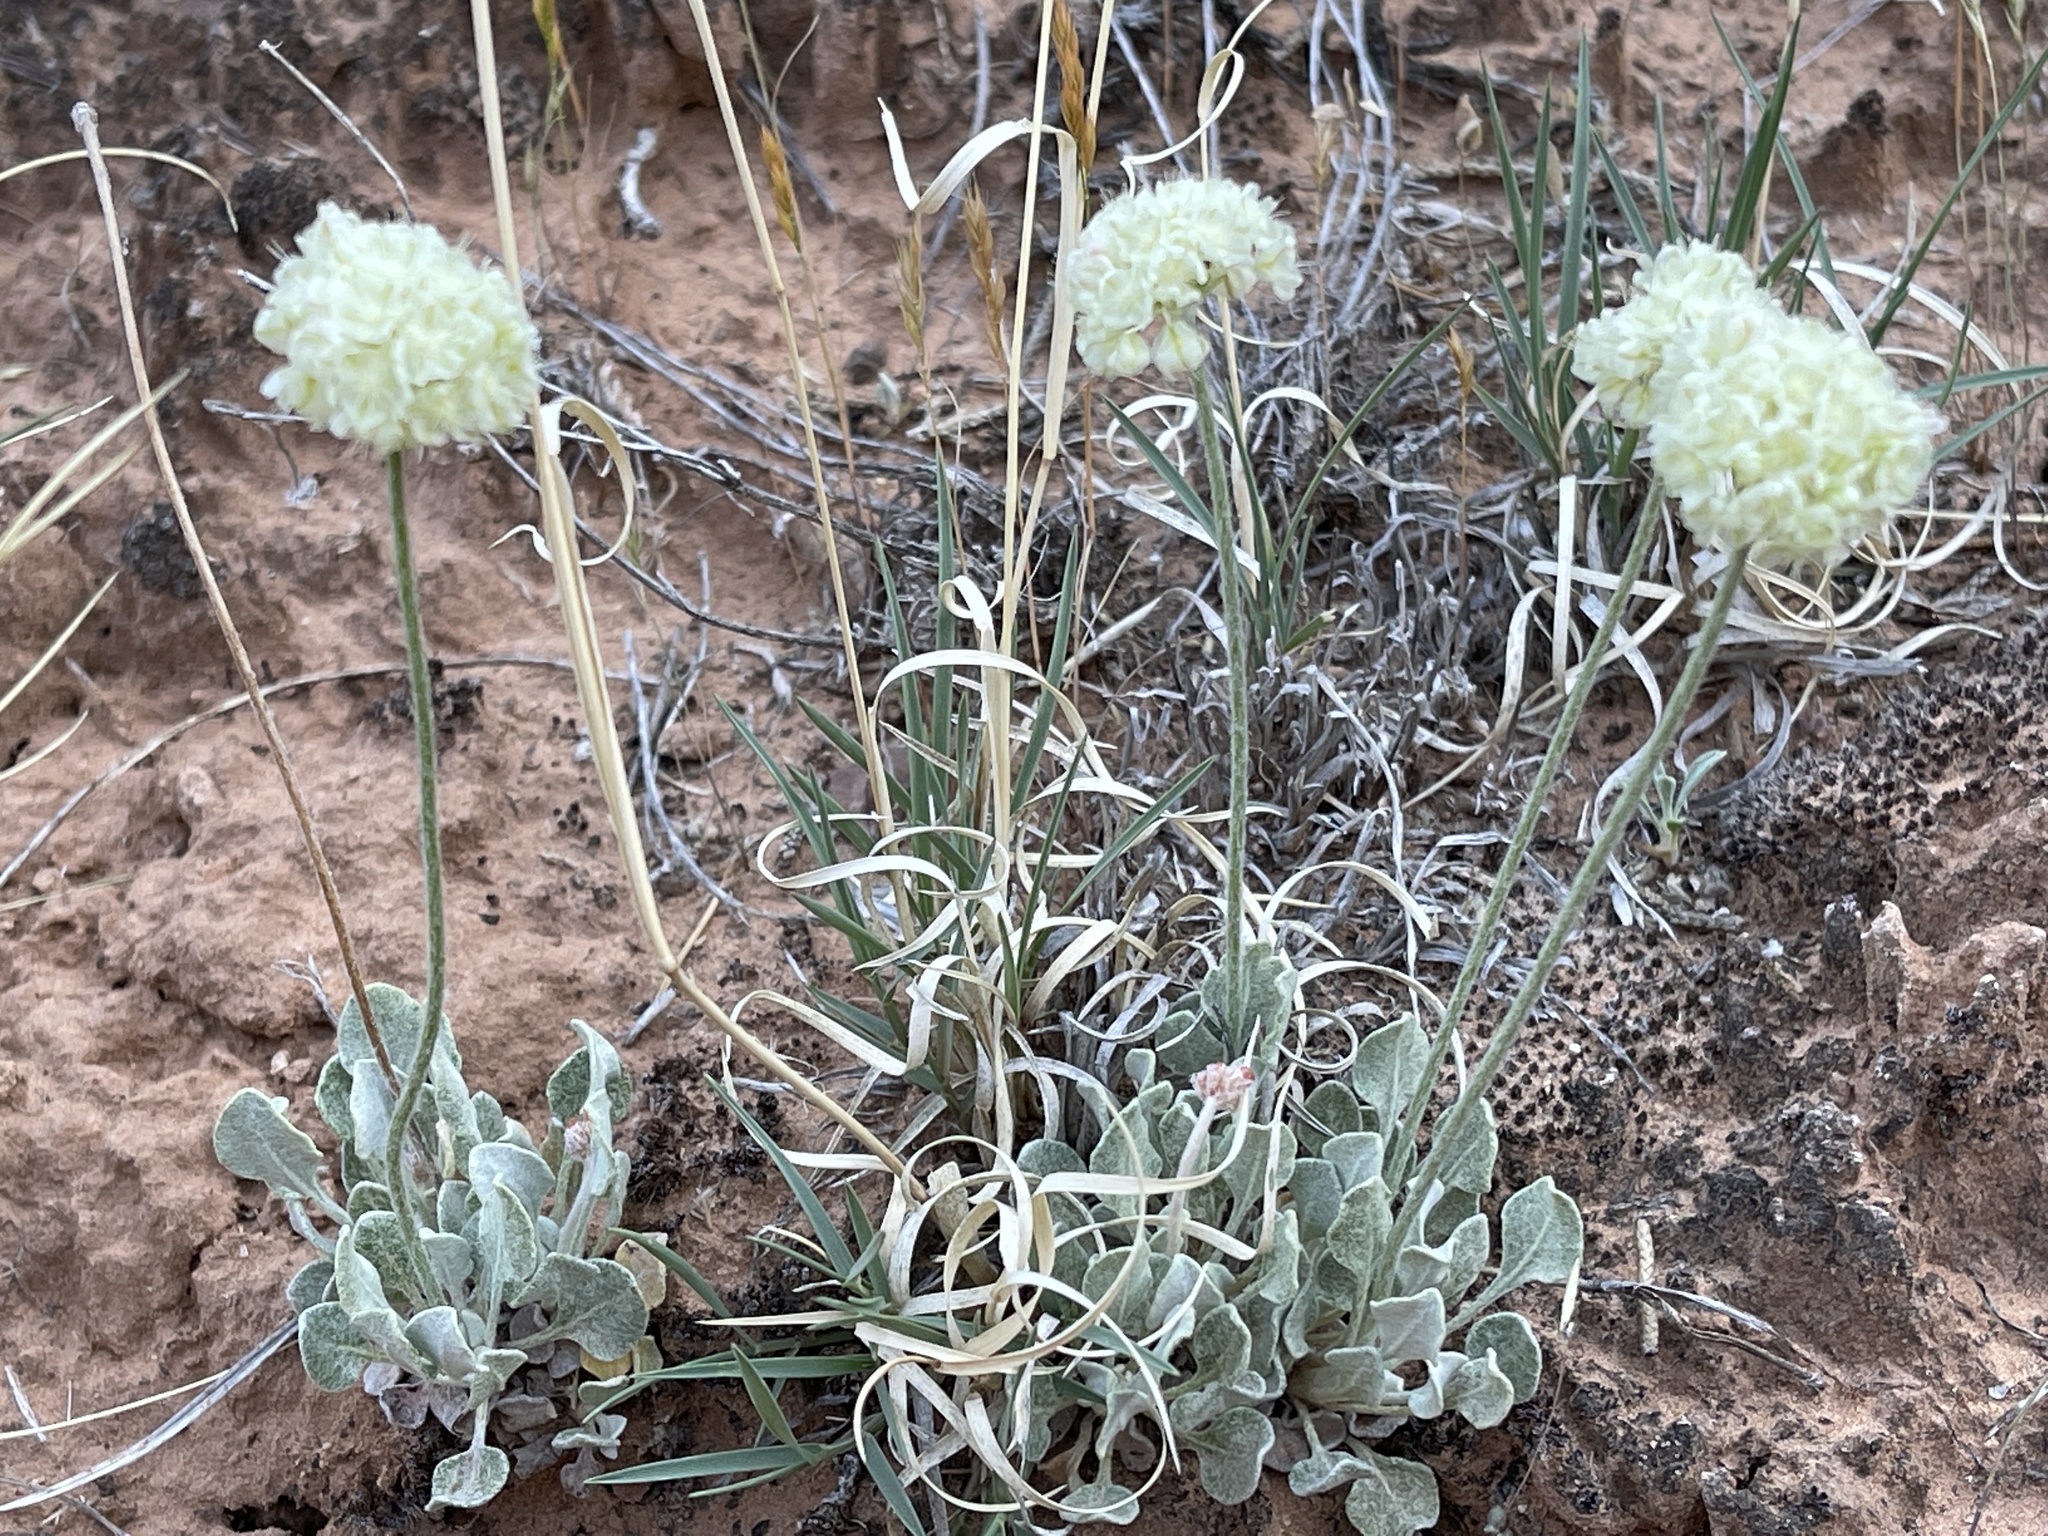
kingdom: Plantae
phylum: Tracheophyta
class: Magnoliopsida
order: Caryophyllales
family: Polygonaceae
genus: Eriogonum
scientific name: Eriogonum ovalifolium
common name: Cushion buckwheat
